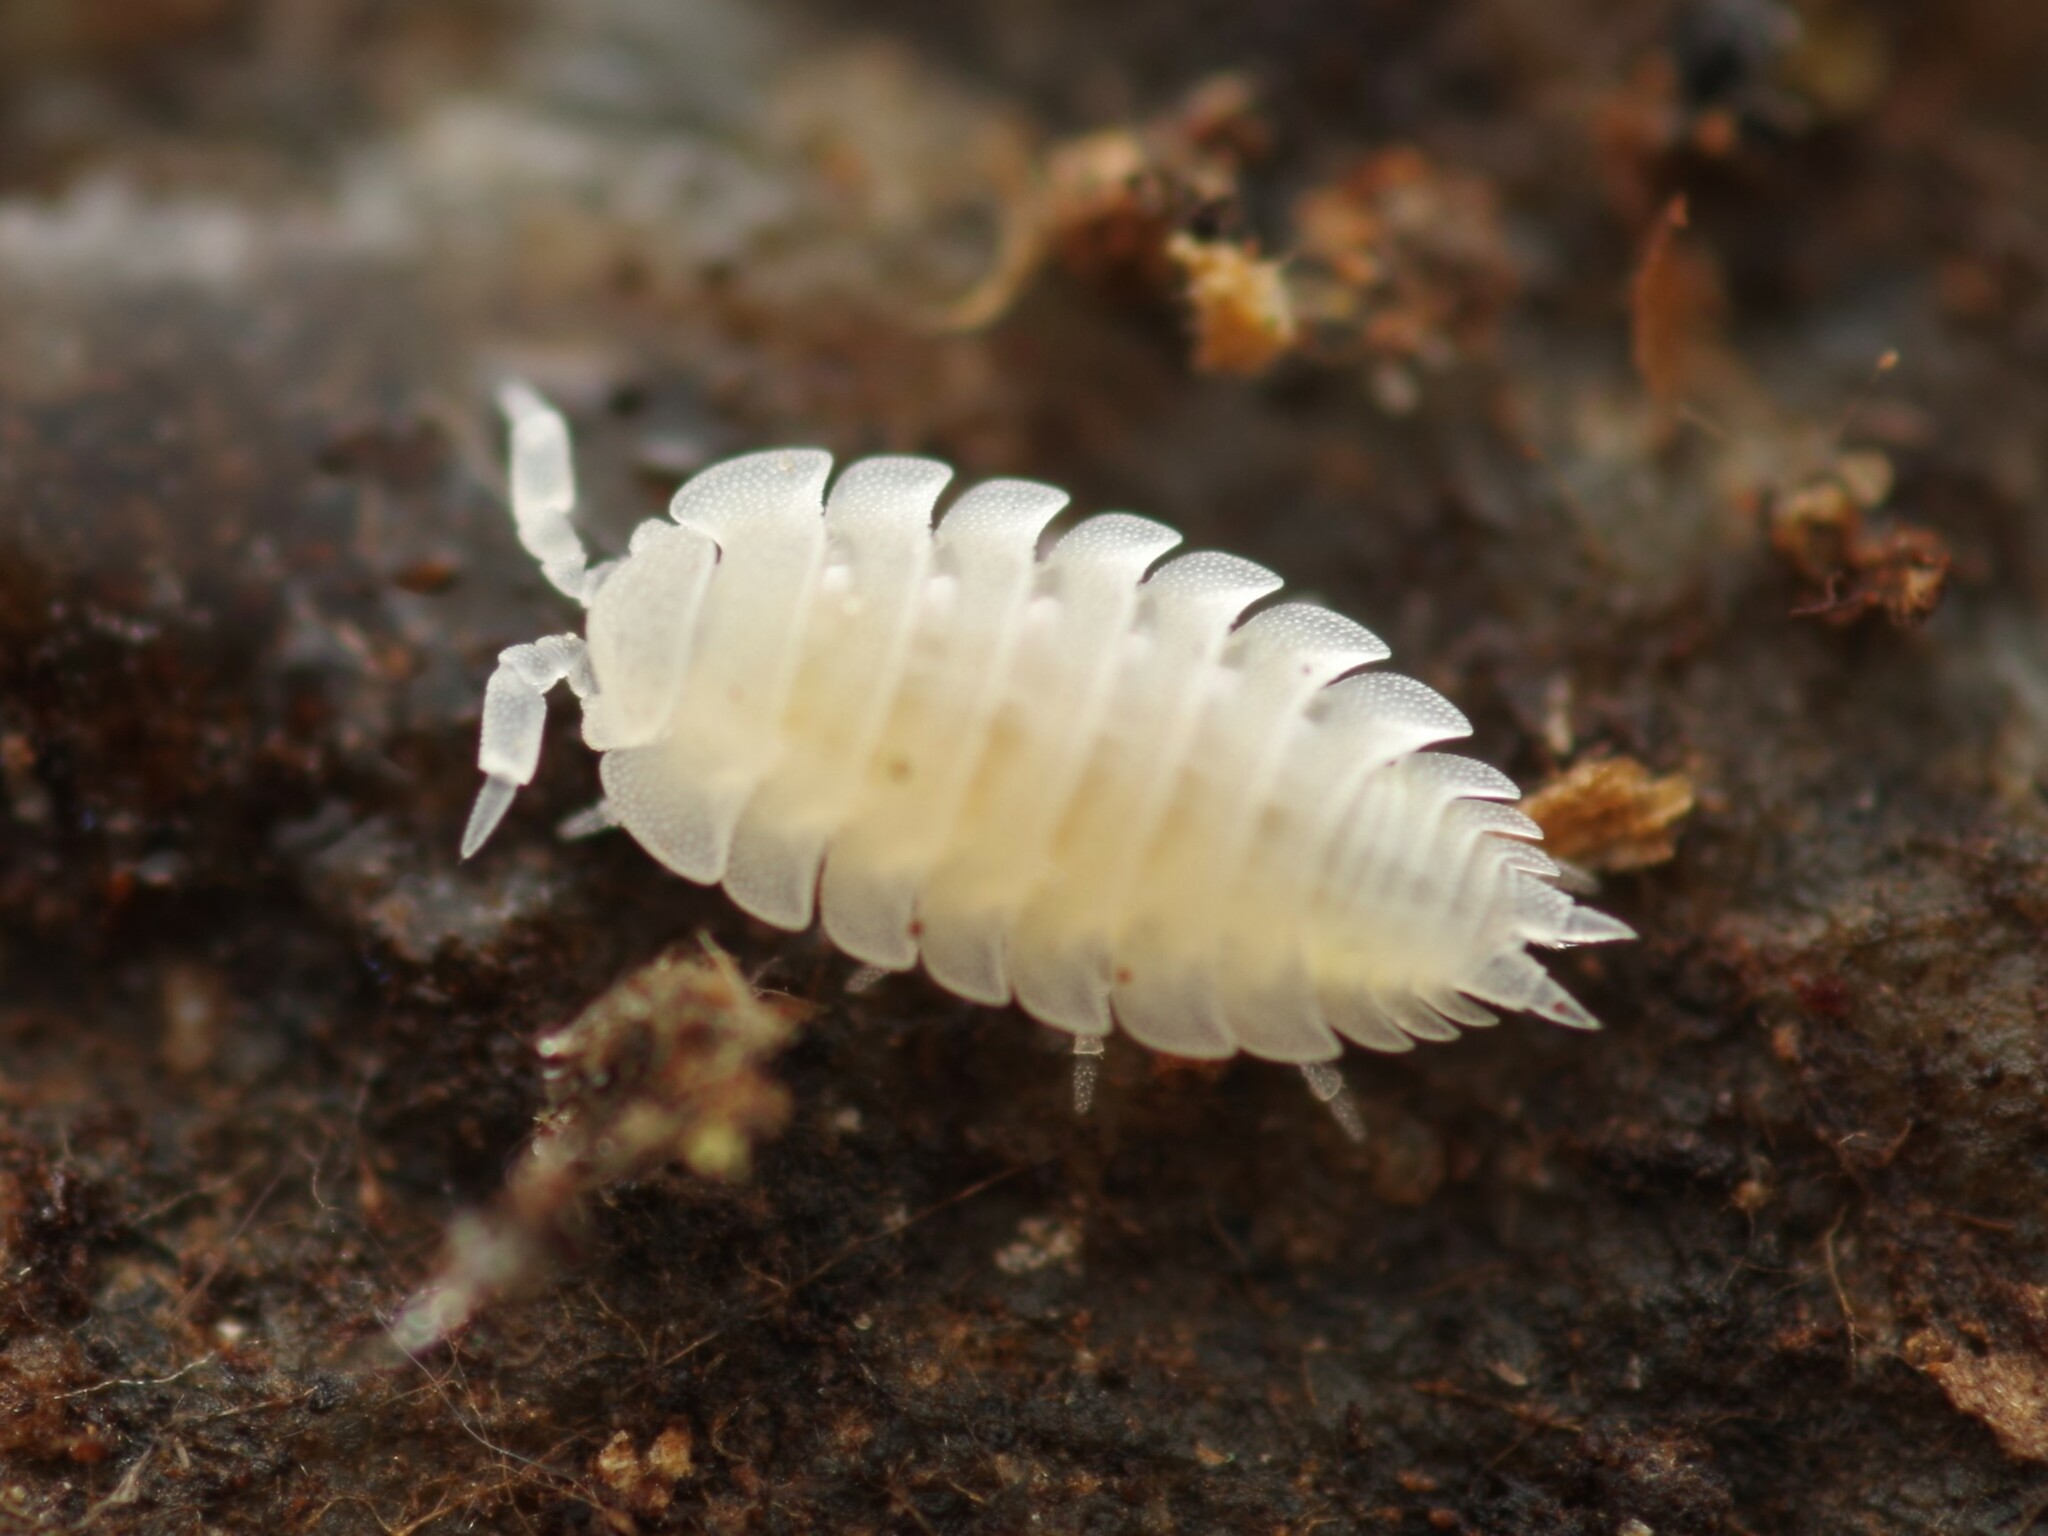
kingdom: Animalia
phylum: Arthropoda
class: Malacostraca
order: Isopoda
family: Platyarthridae
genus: Platyarthrus
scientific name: Platyarthrus hoffmannseggii
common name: Ant woodlouse
